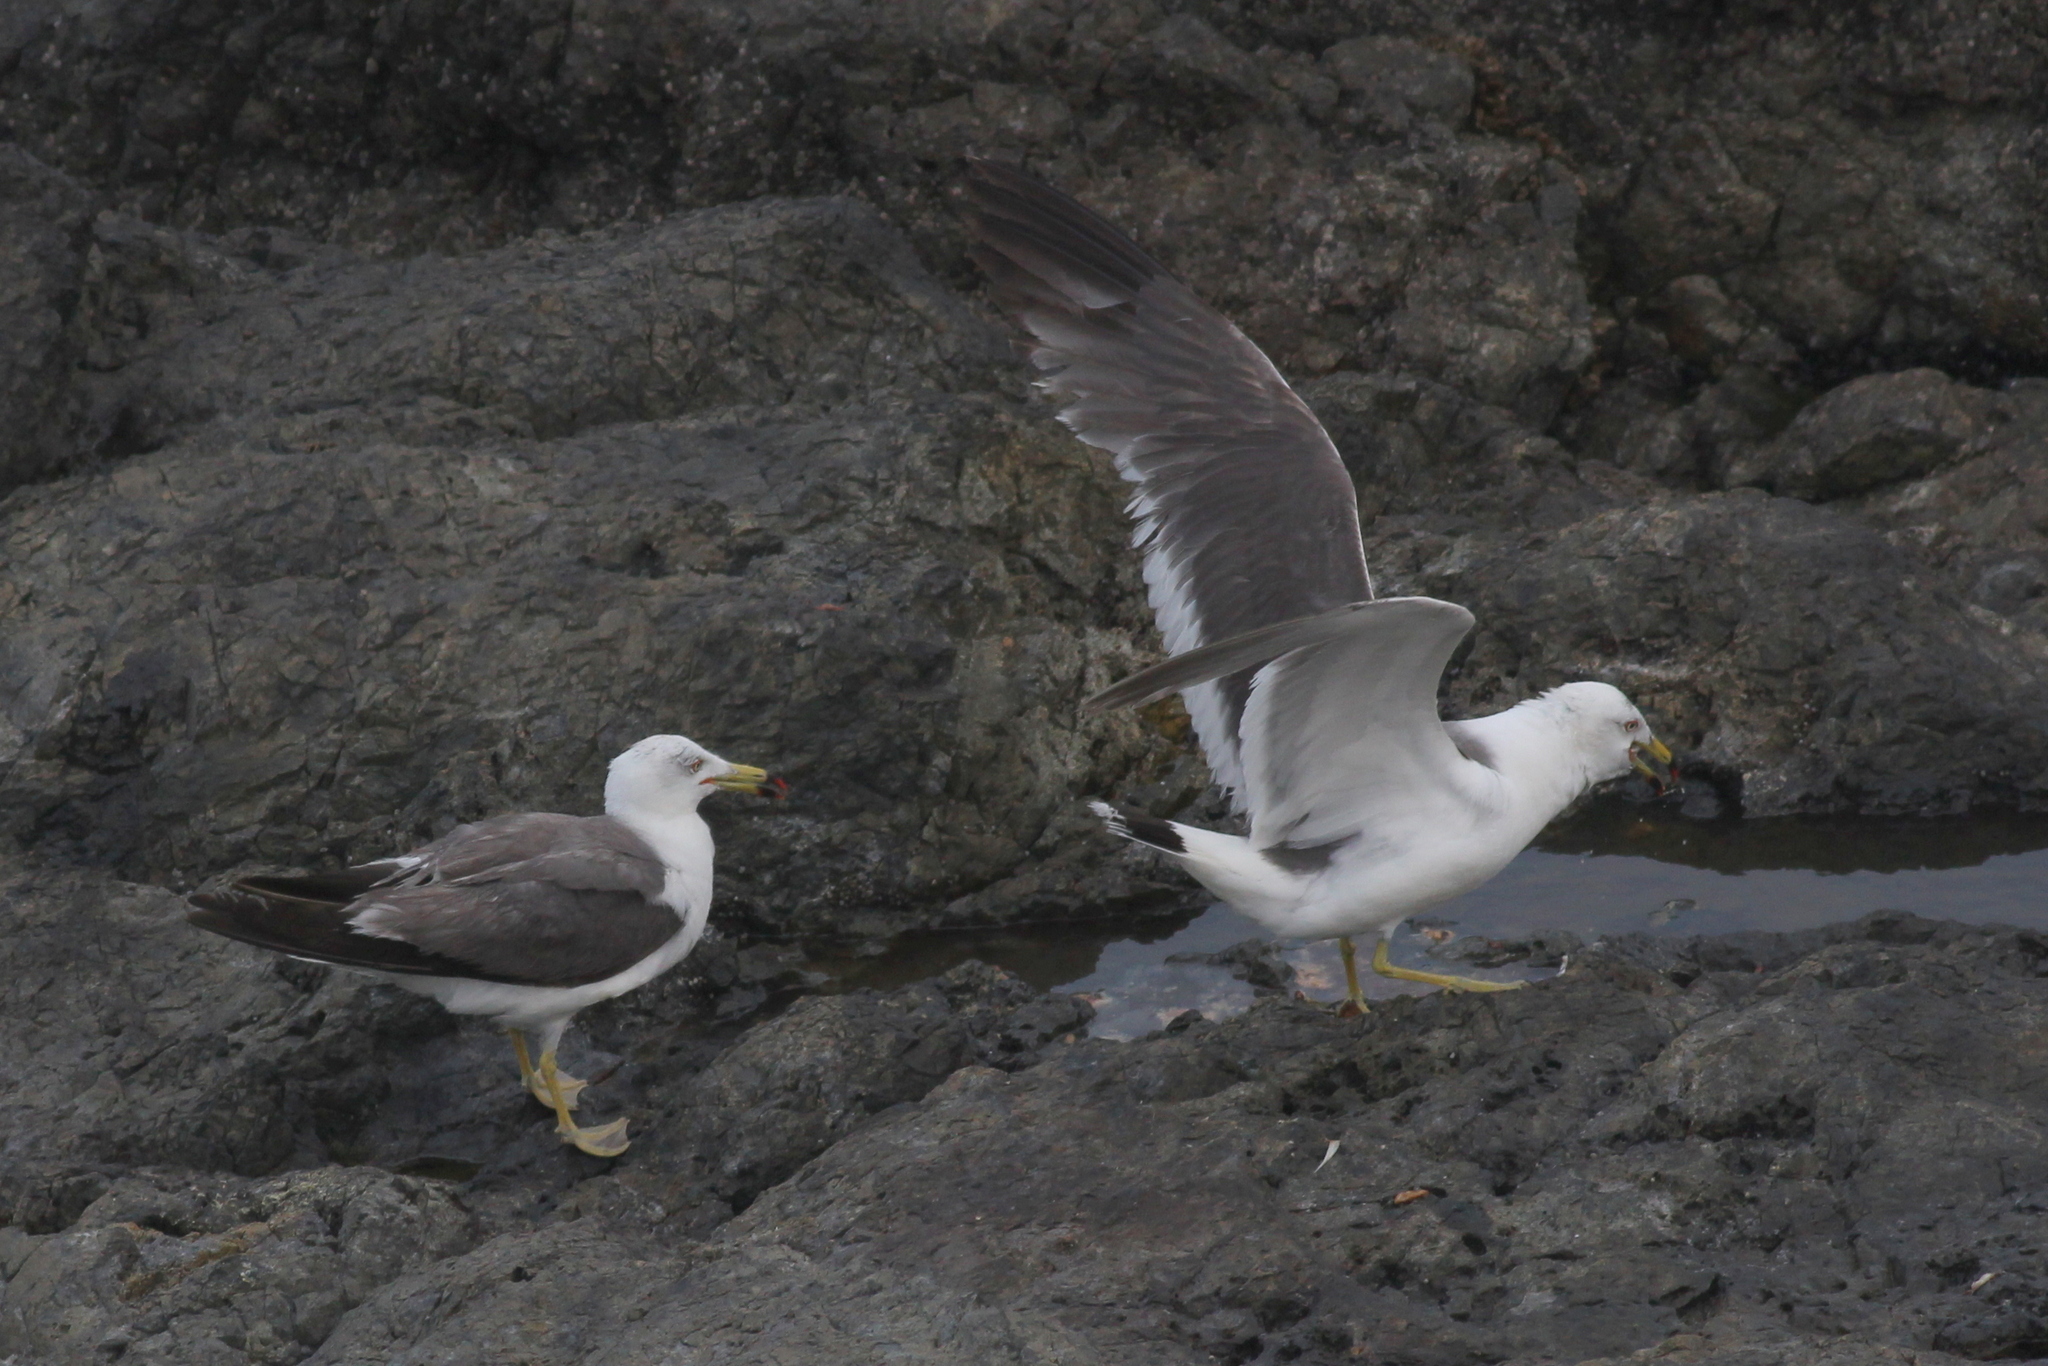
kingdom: Animalia
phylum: Chordata
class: Aves
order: Charadriiformes
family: Laridae
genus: Larus
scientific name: Larus crassirostris
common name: Black-tailed gull
